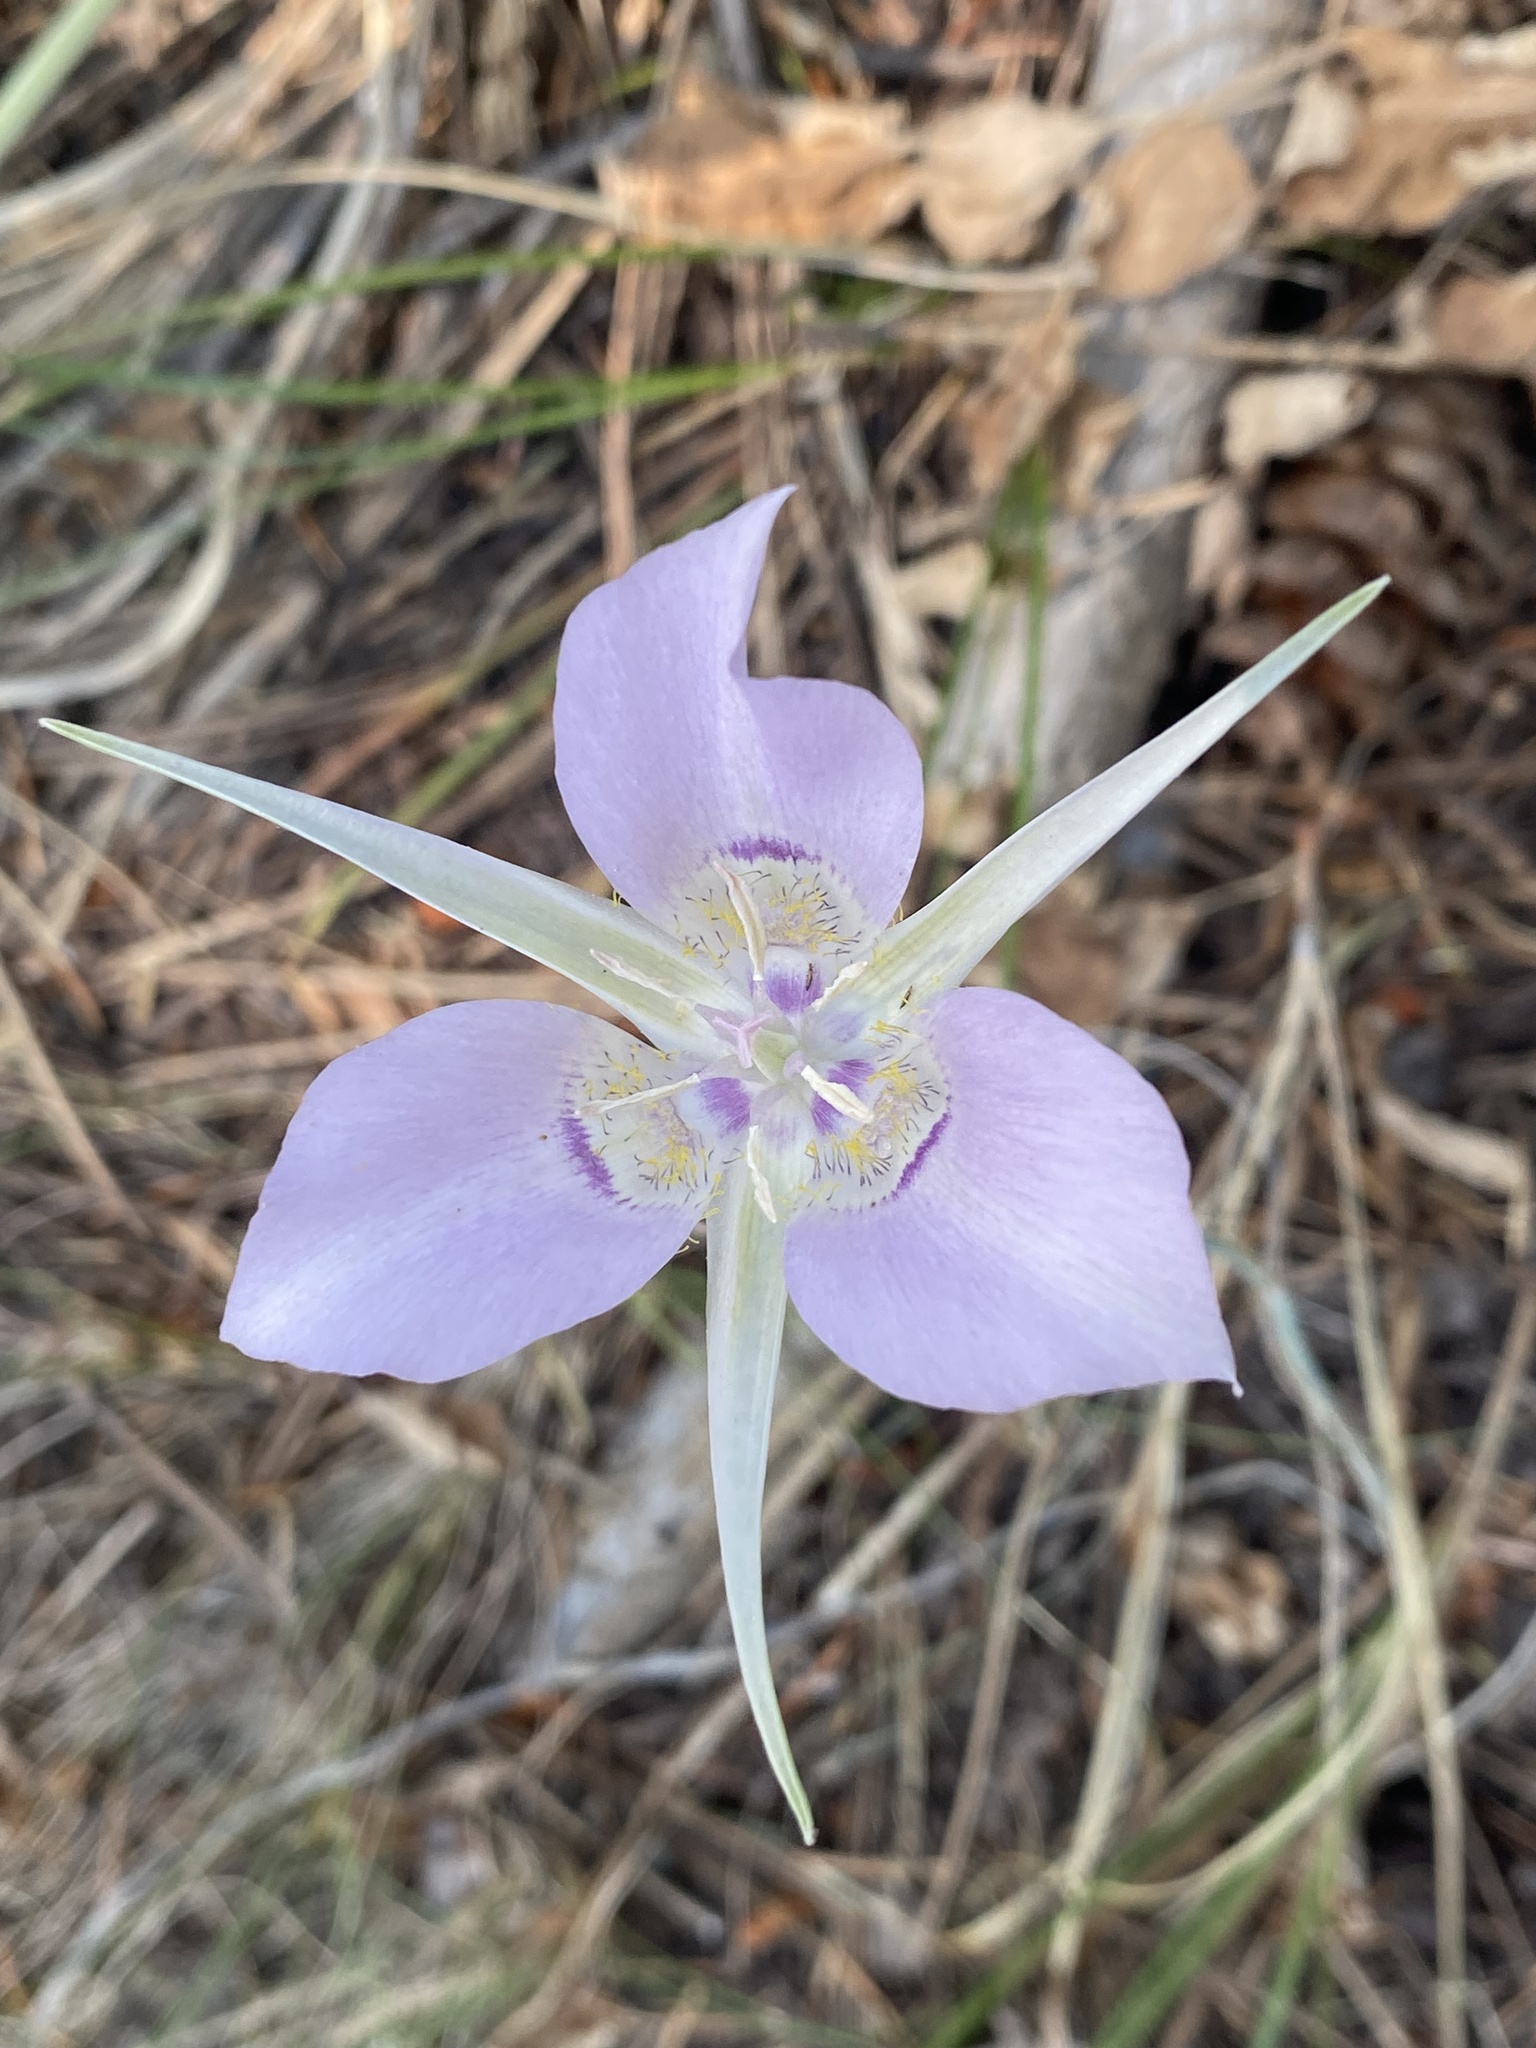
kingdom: Plantae
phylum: Tracheophyta
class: Liliopsida
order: Liliales
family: Liliaceae
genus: Calochortus
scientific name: Calochortus macrocarpus
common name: Green-band mariposa lily
